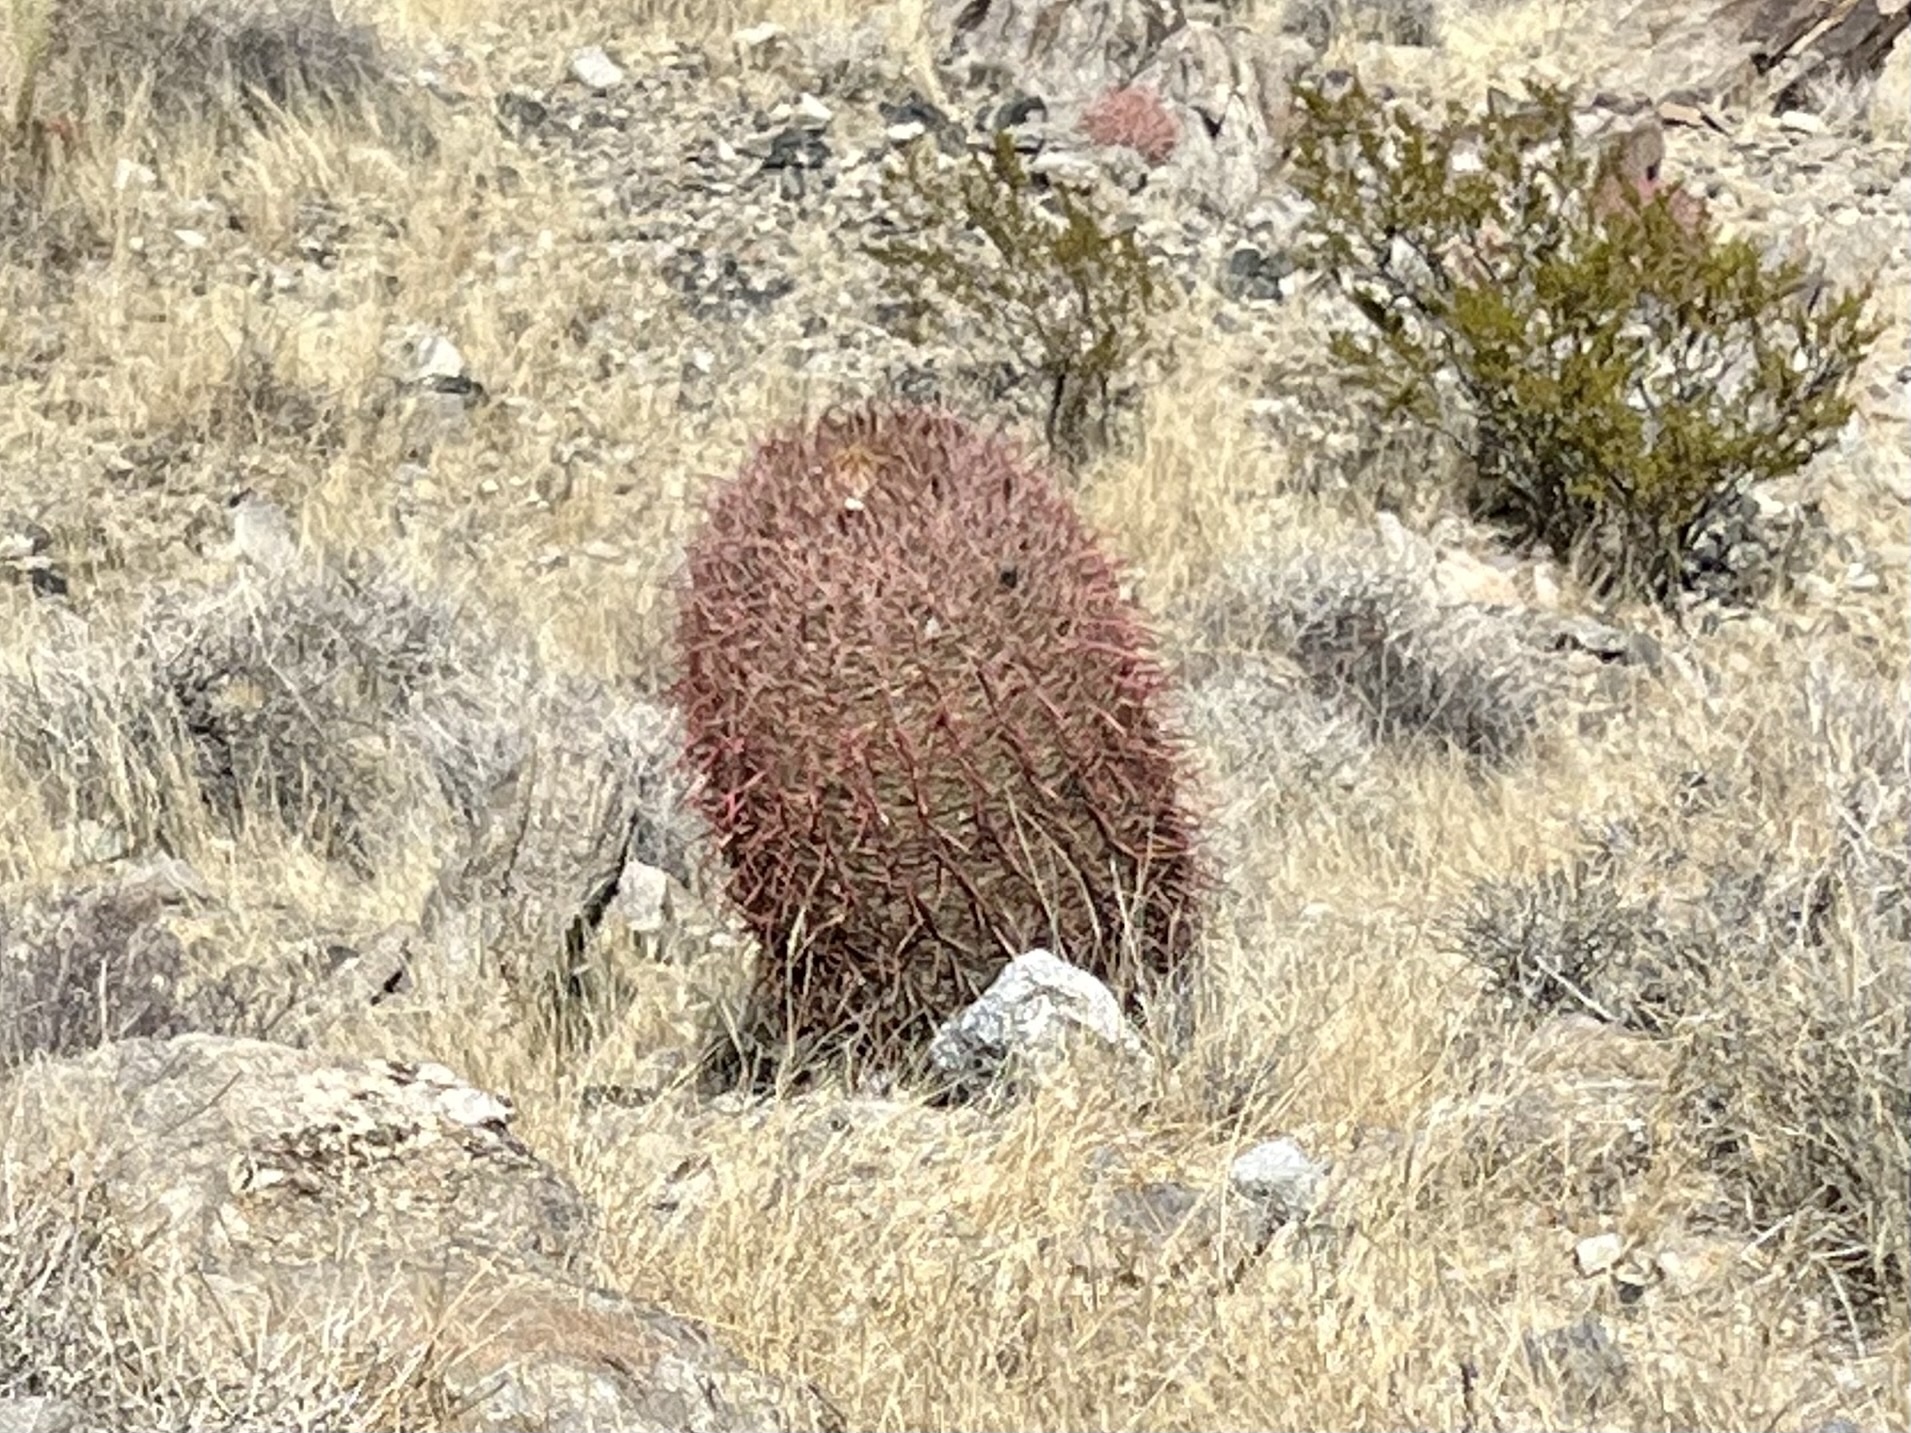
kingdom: Plantae
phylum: Tracheophyta
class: Magnoliopsida
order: Caryophyllales
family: Cactaceae
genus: Ferocactus
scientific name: Ferocactus cylindraceus
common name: California barrel cactus
